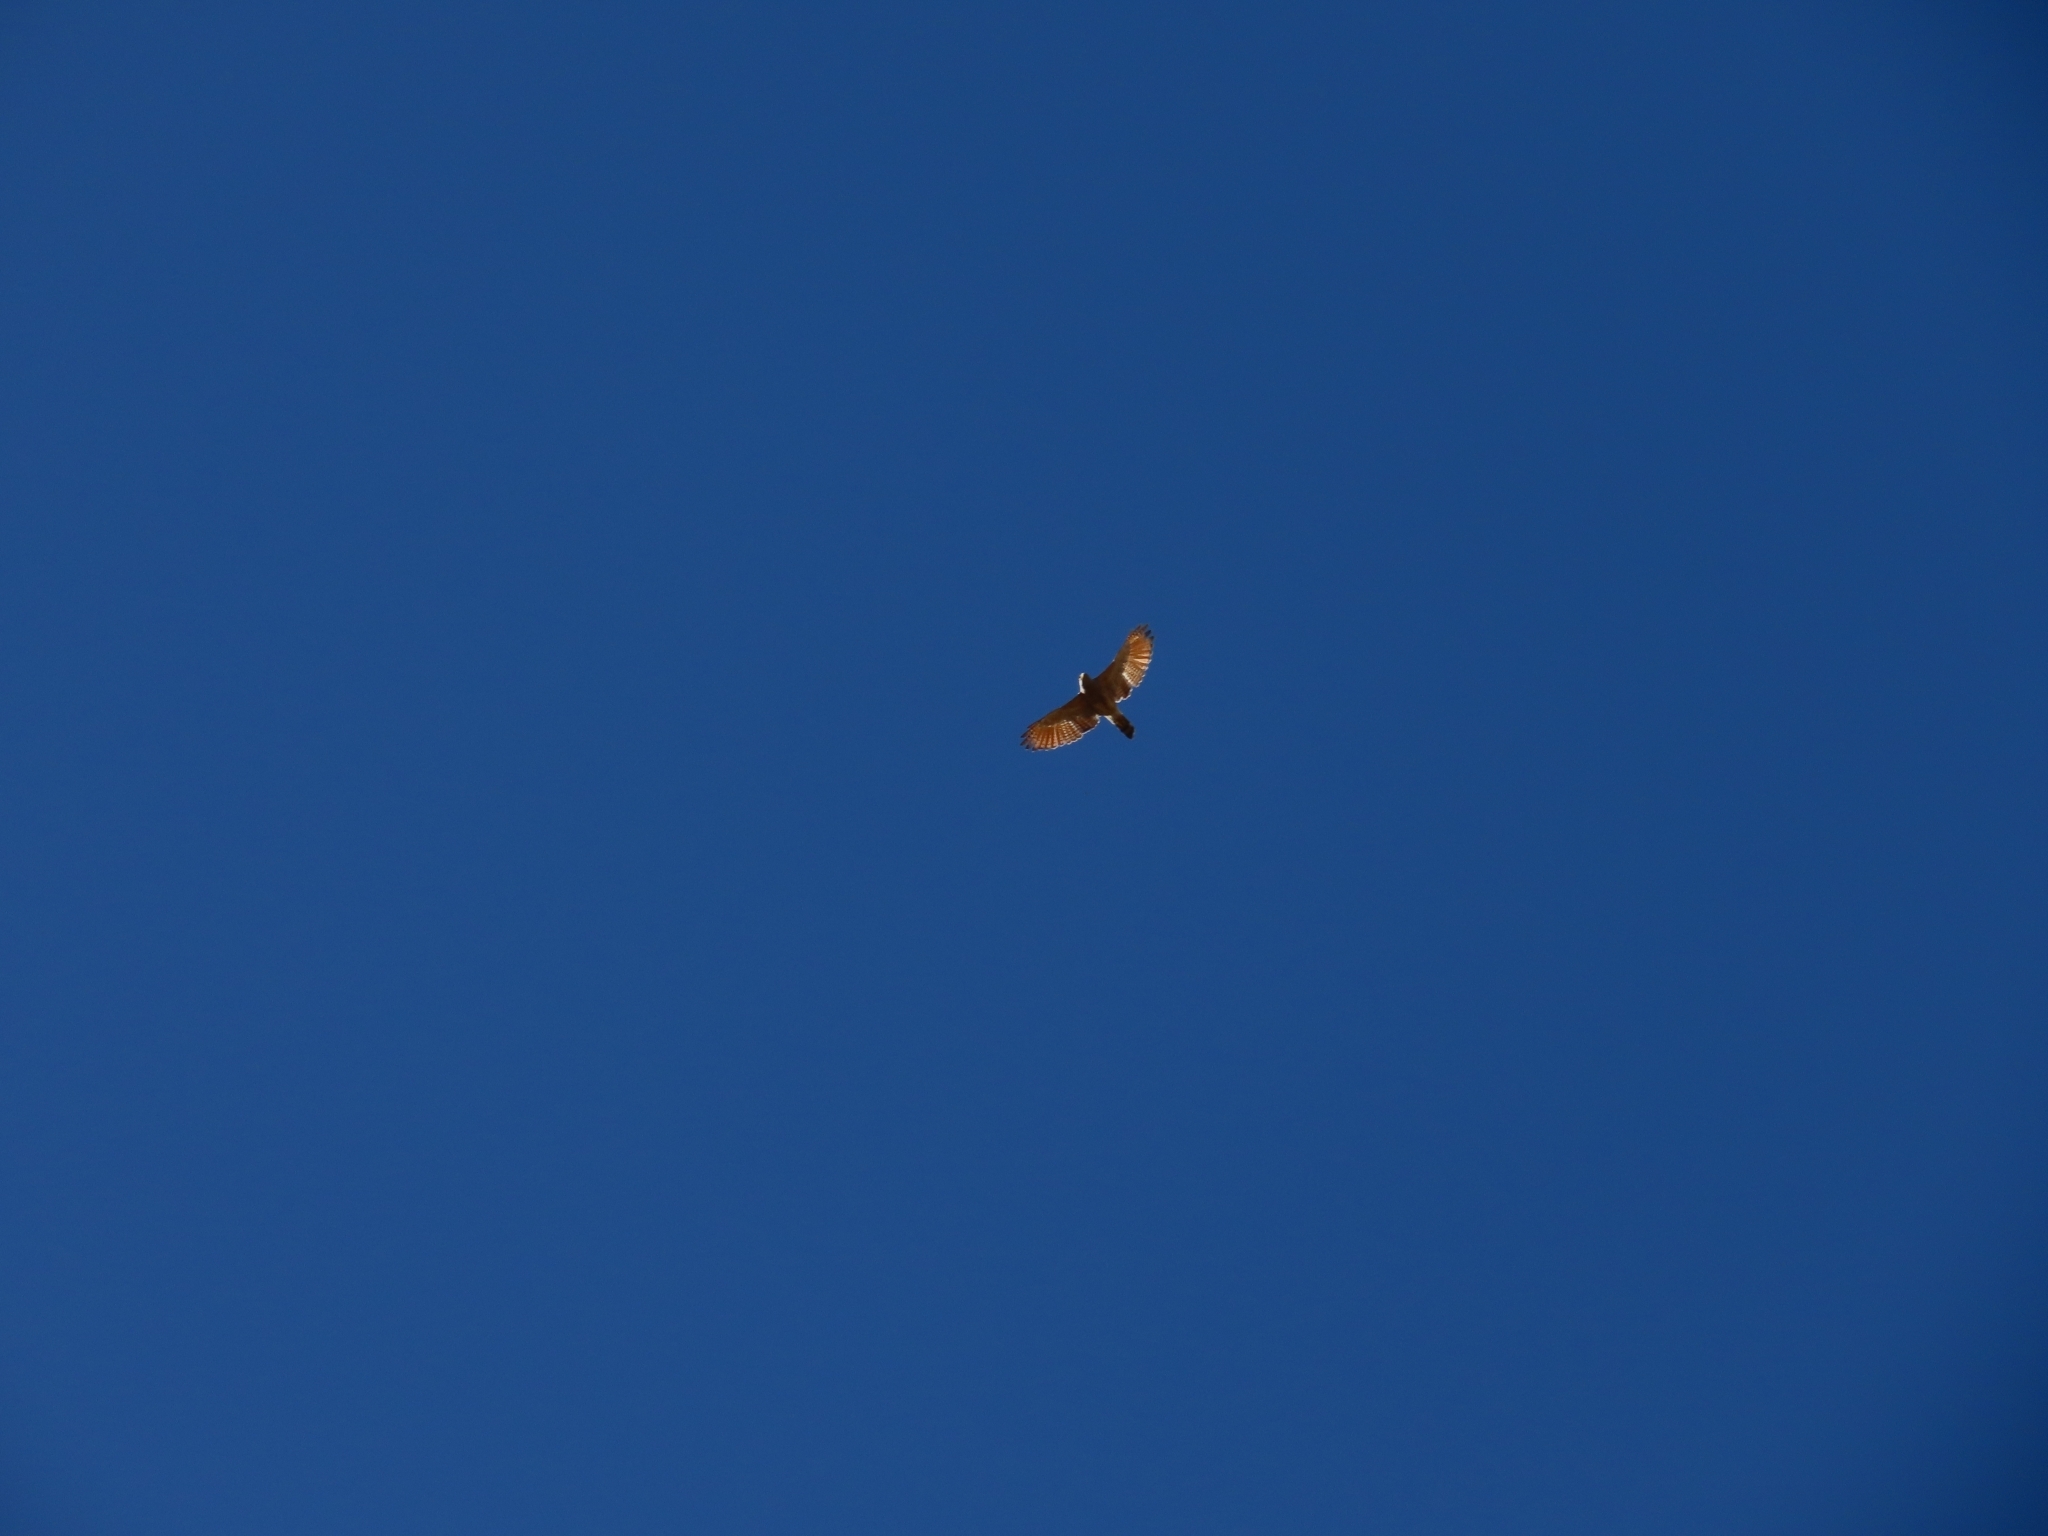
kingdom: Animalia
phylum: Chordata
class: Aves
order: Accipitriformes
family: Accipitridae
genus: Rupornis
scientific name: Rupornis magnirostris
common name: Roadside hawk
